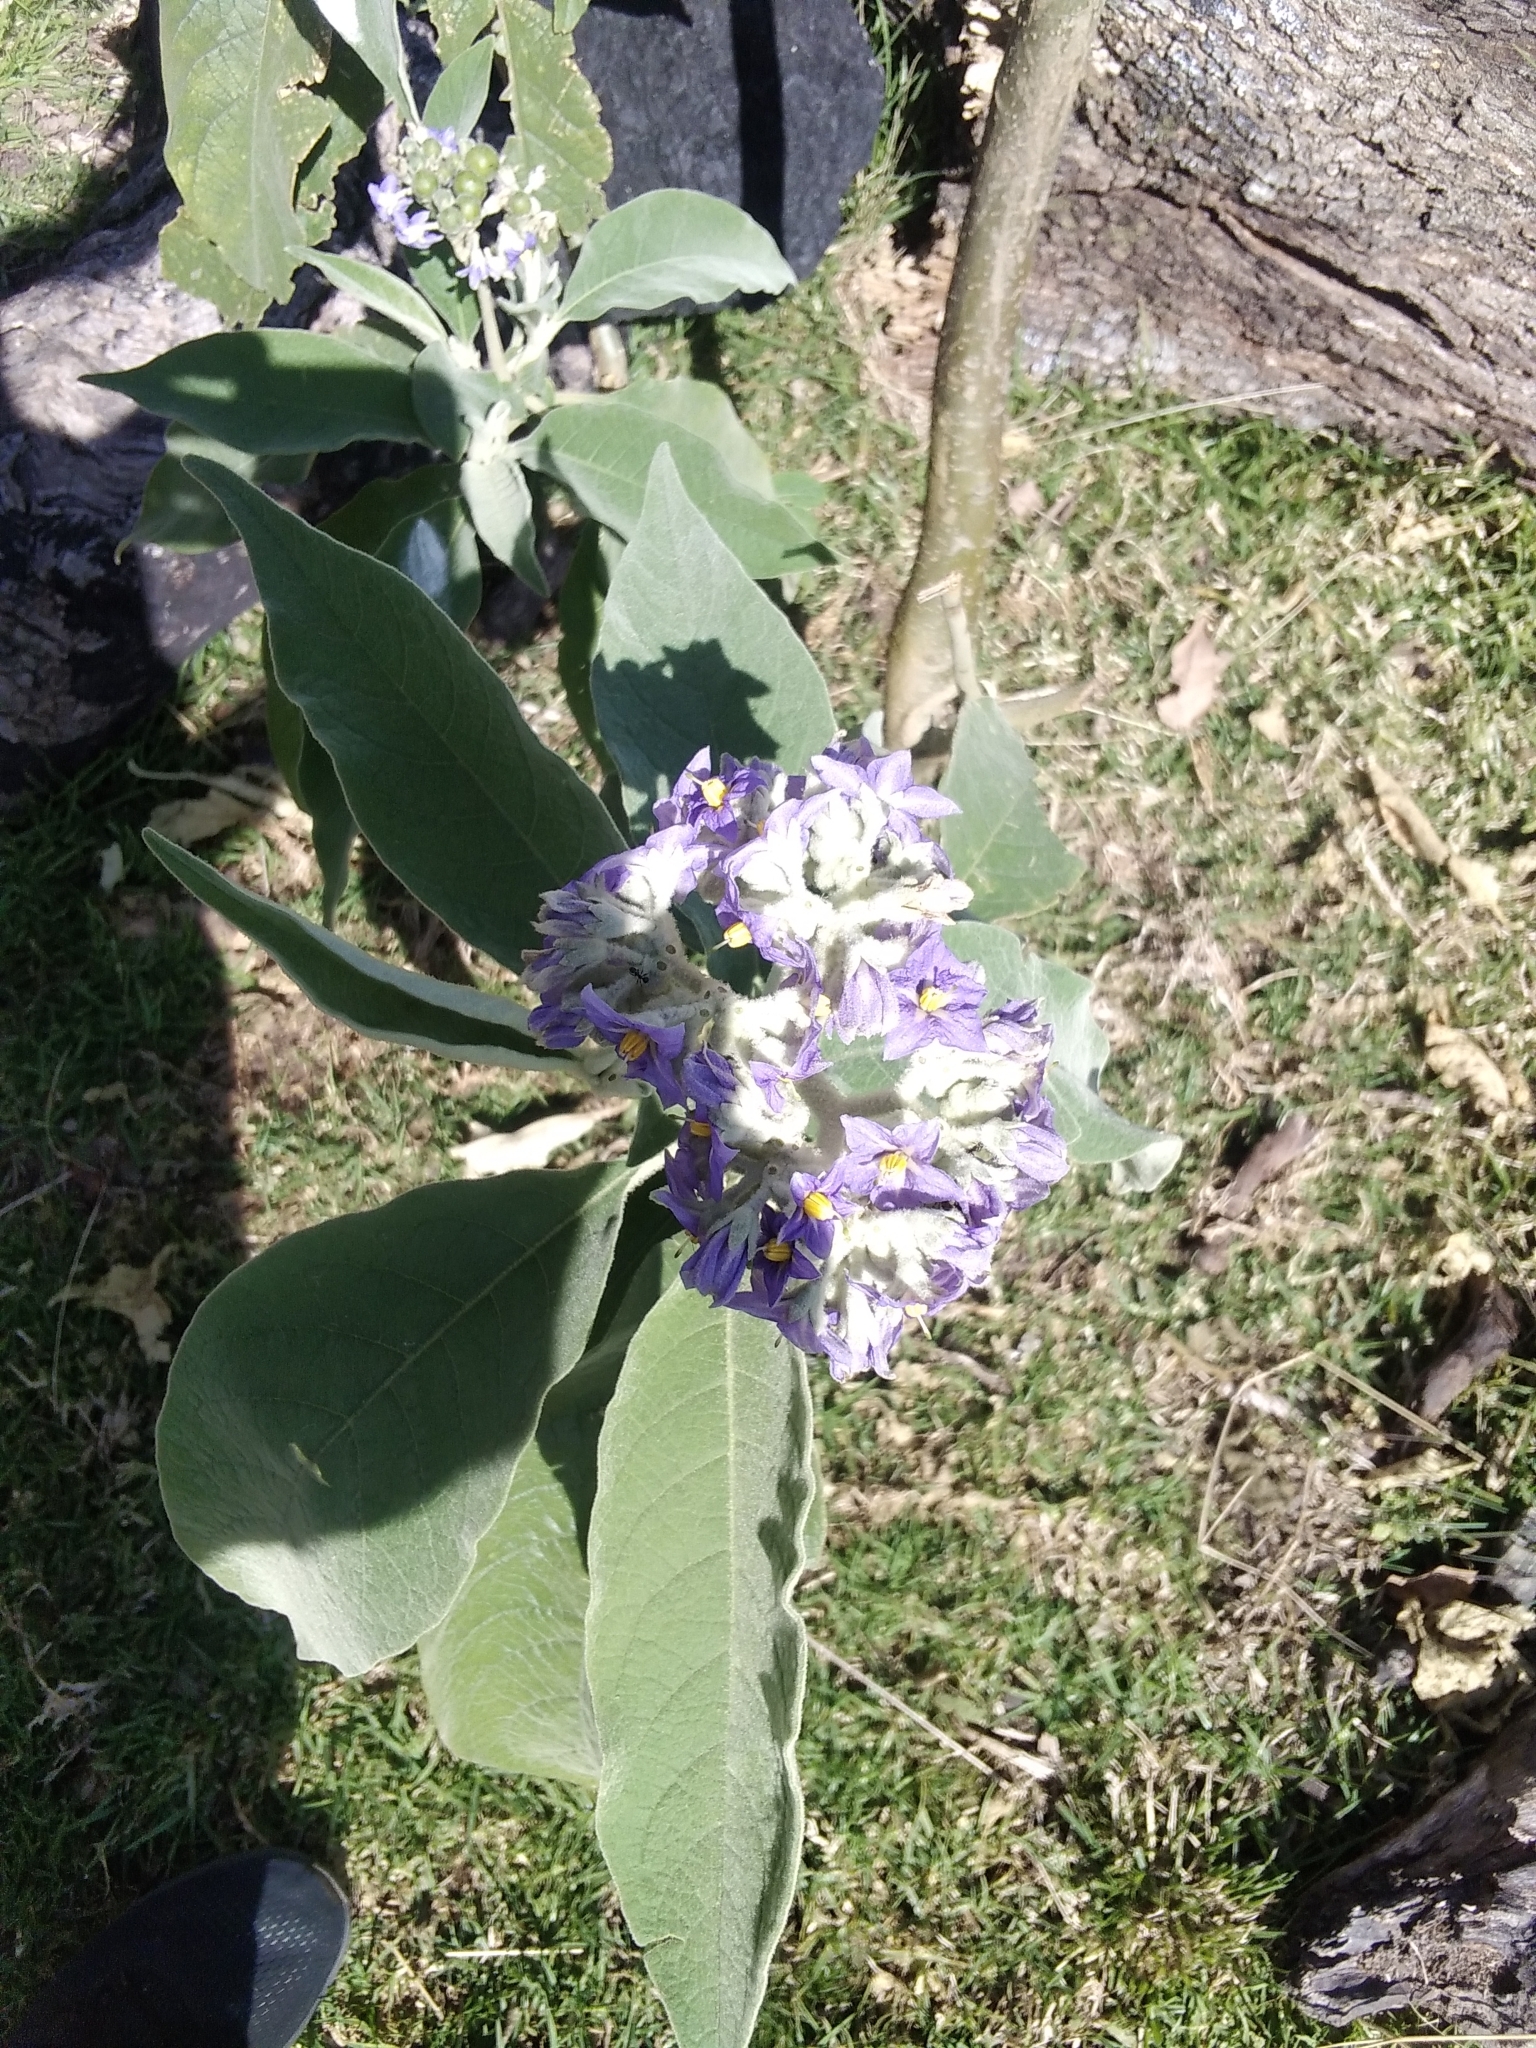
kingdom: Plantae
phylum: Tracheophyta
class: Magnoliopsida
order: Solanales
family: Solanaceae
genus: Solanum
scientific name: Solanum mauritianum
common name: Earleaf nightshade
